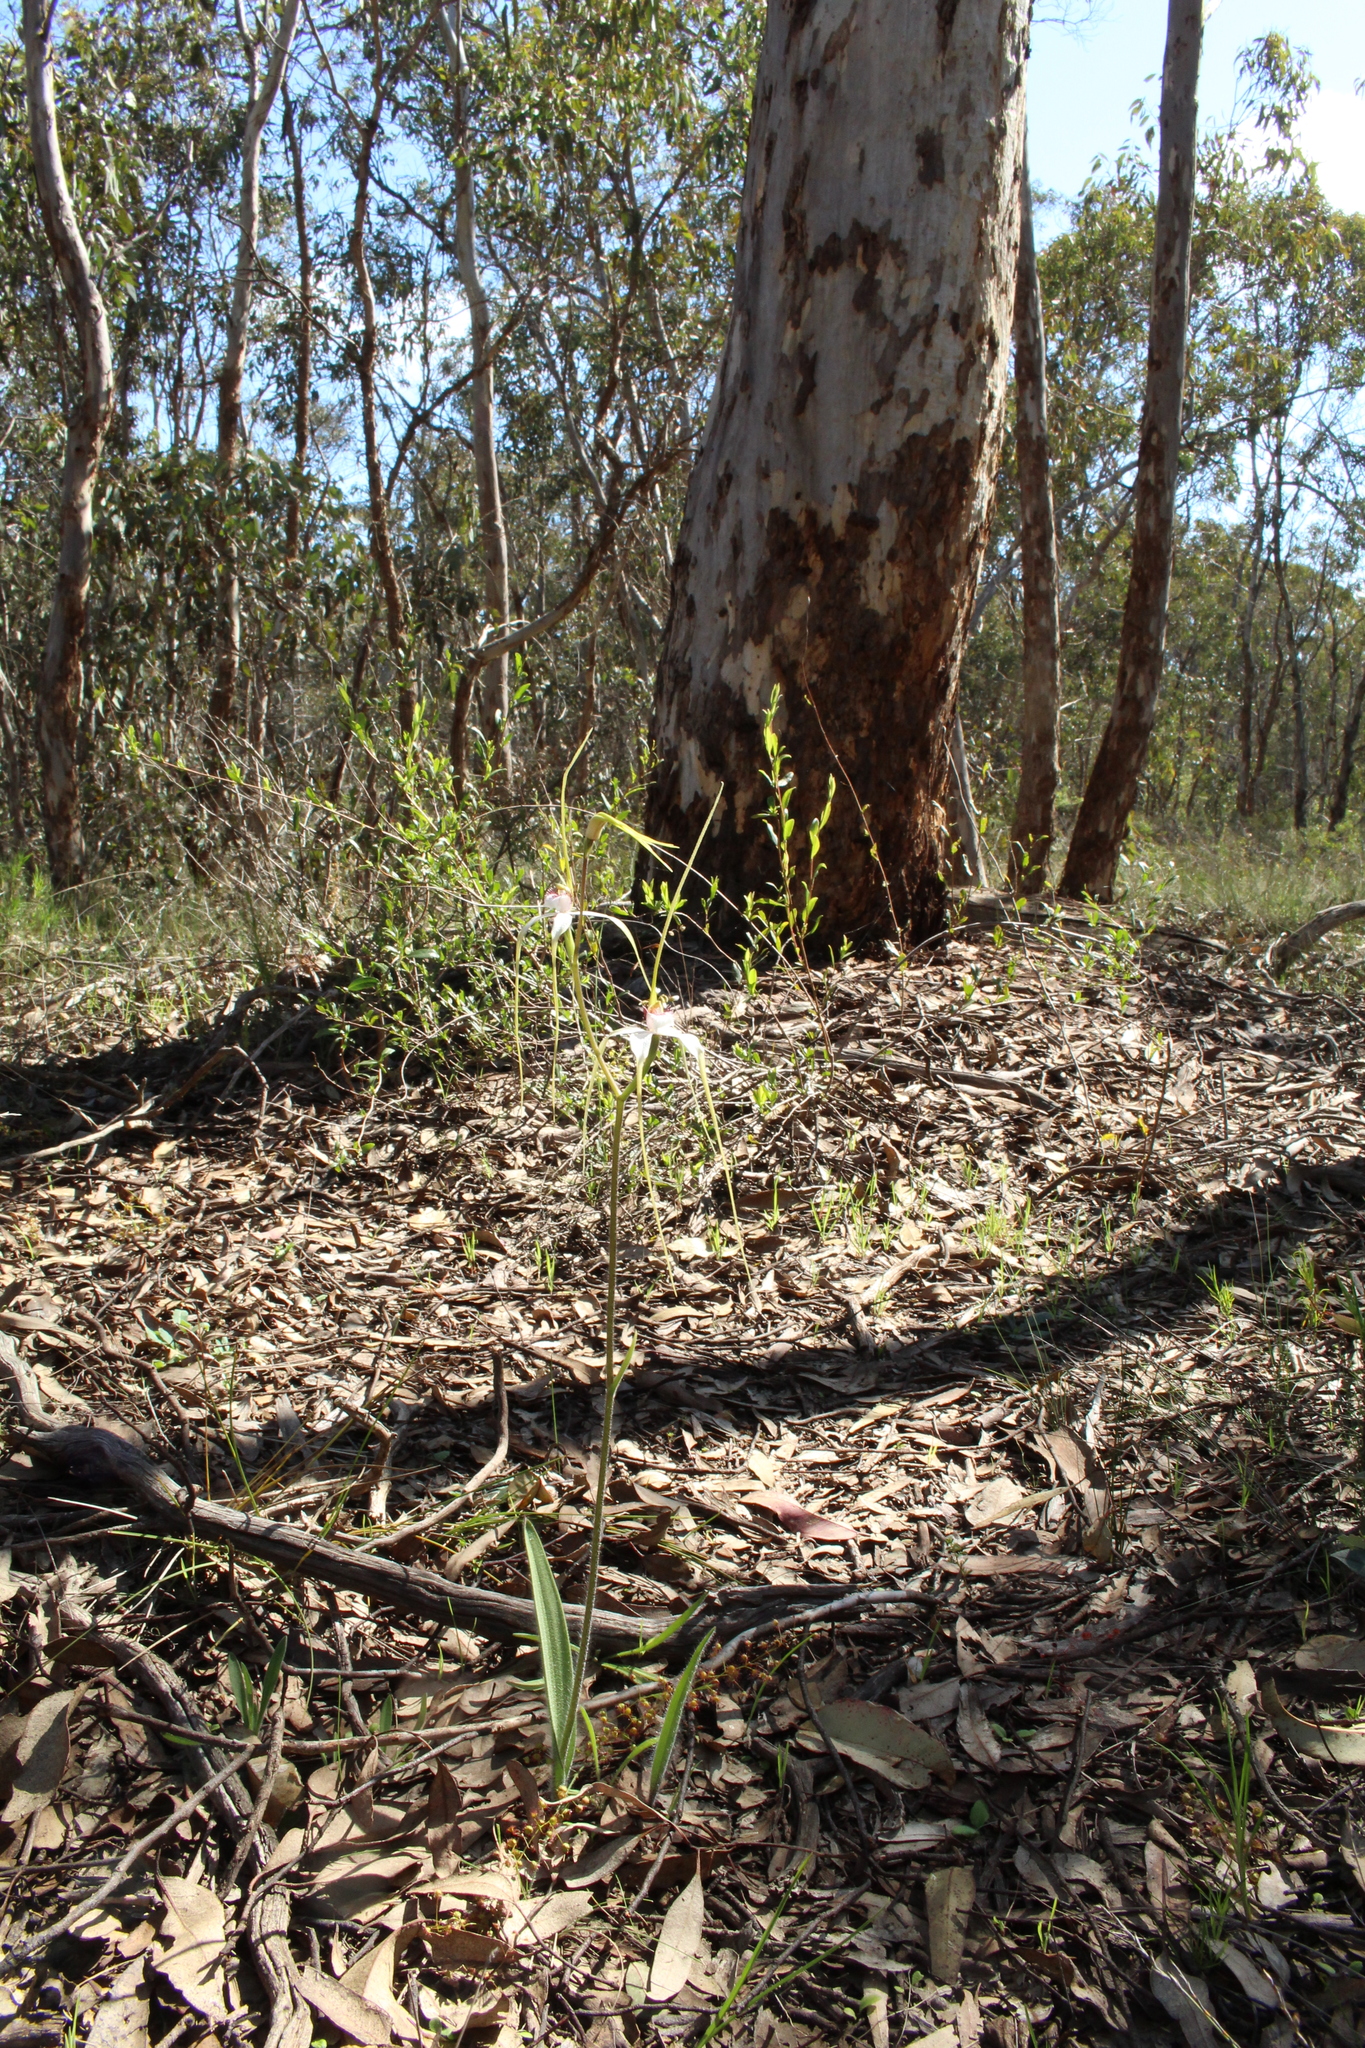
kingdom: Plantae
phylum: Tracheophyta
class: Liliopsida
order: Asparagales
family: Orchidaceae
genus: Caladenia
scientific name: Caladenia longicauda
